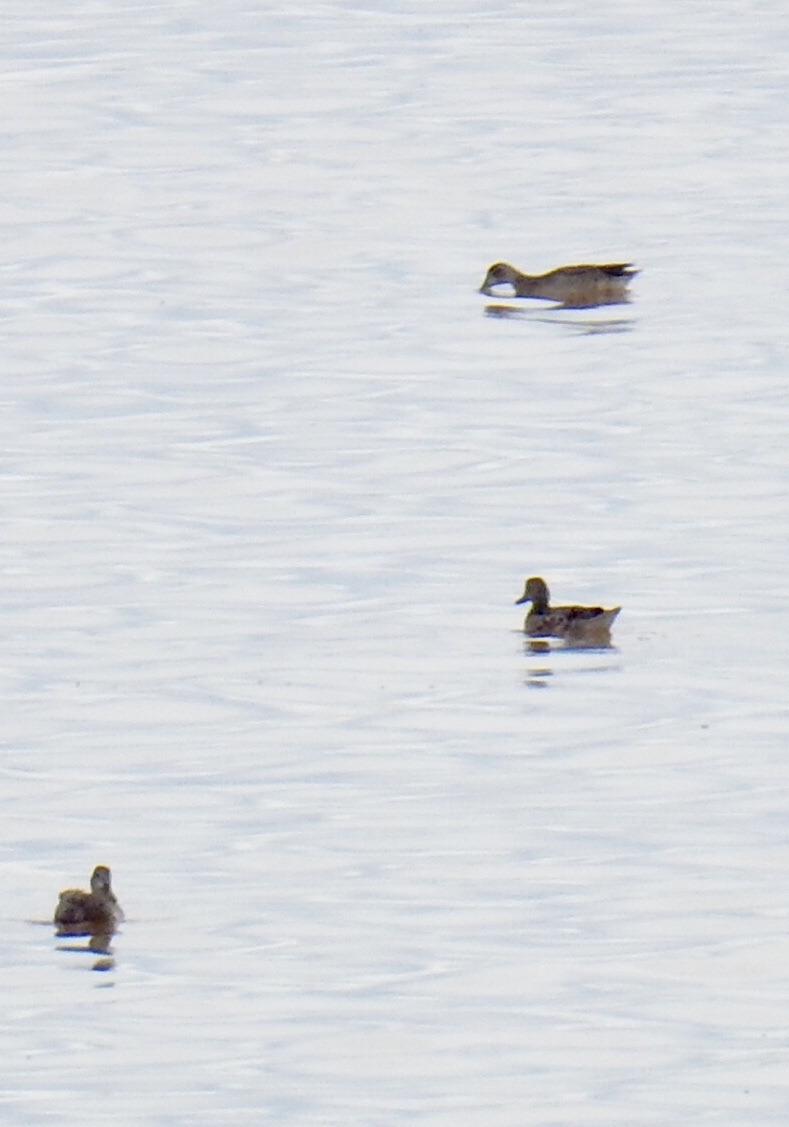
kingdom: Animalia
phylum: Chordata
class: Aves
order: Anseriformes
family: Anatidae
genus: Spatula
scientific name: Spatula discors
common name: Blue-winged teal
